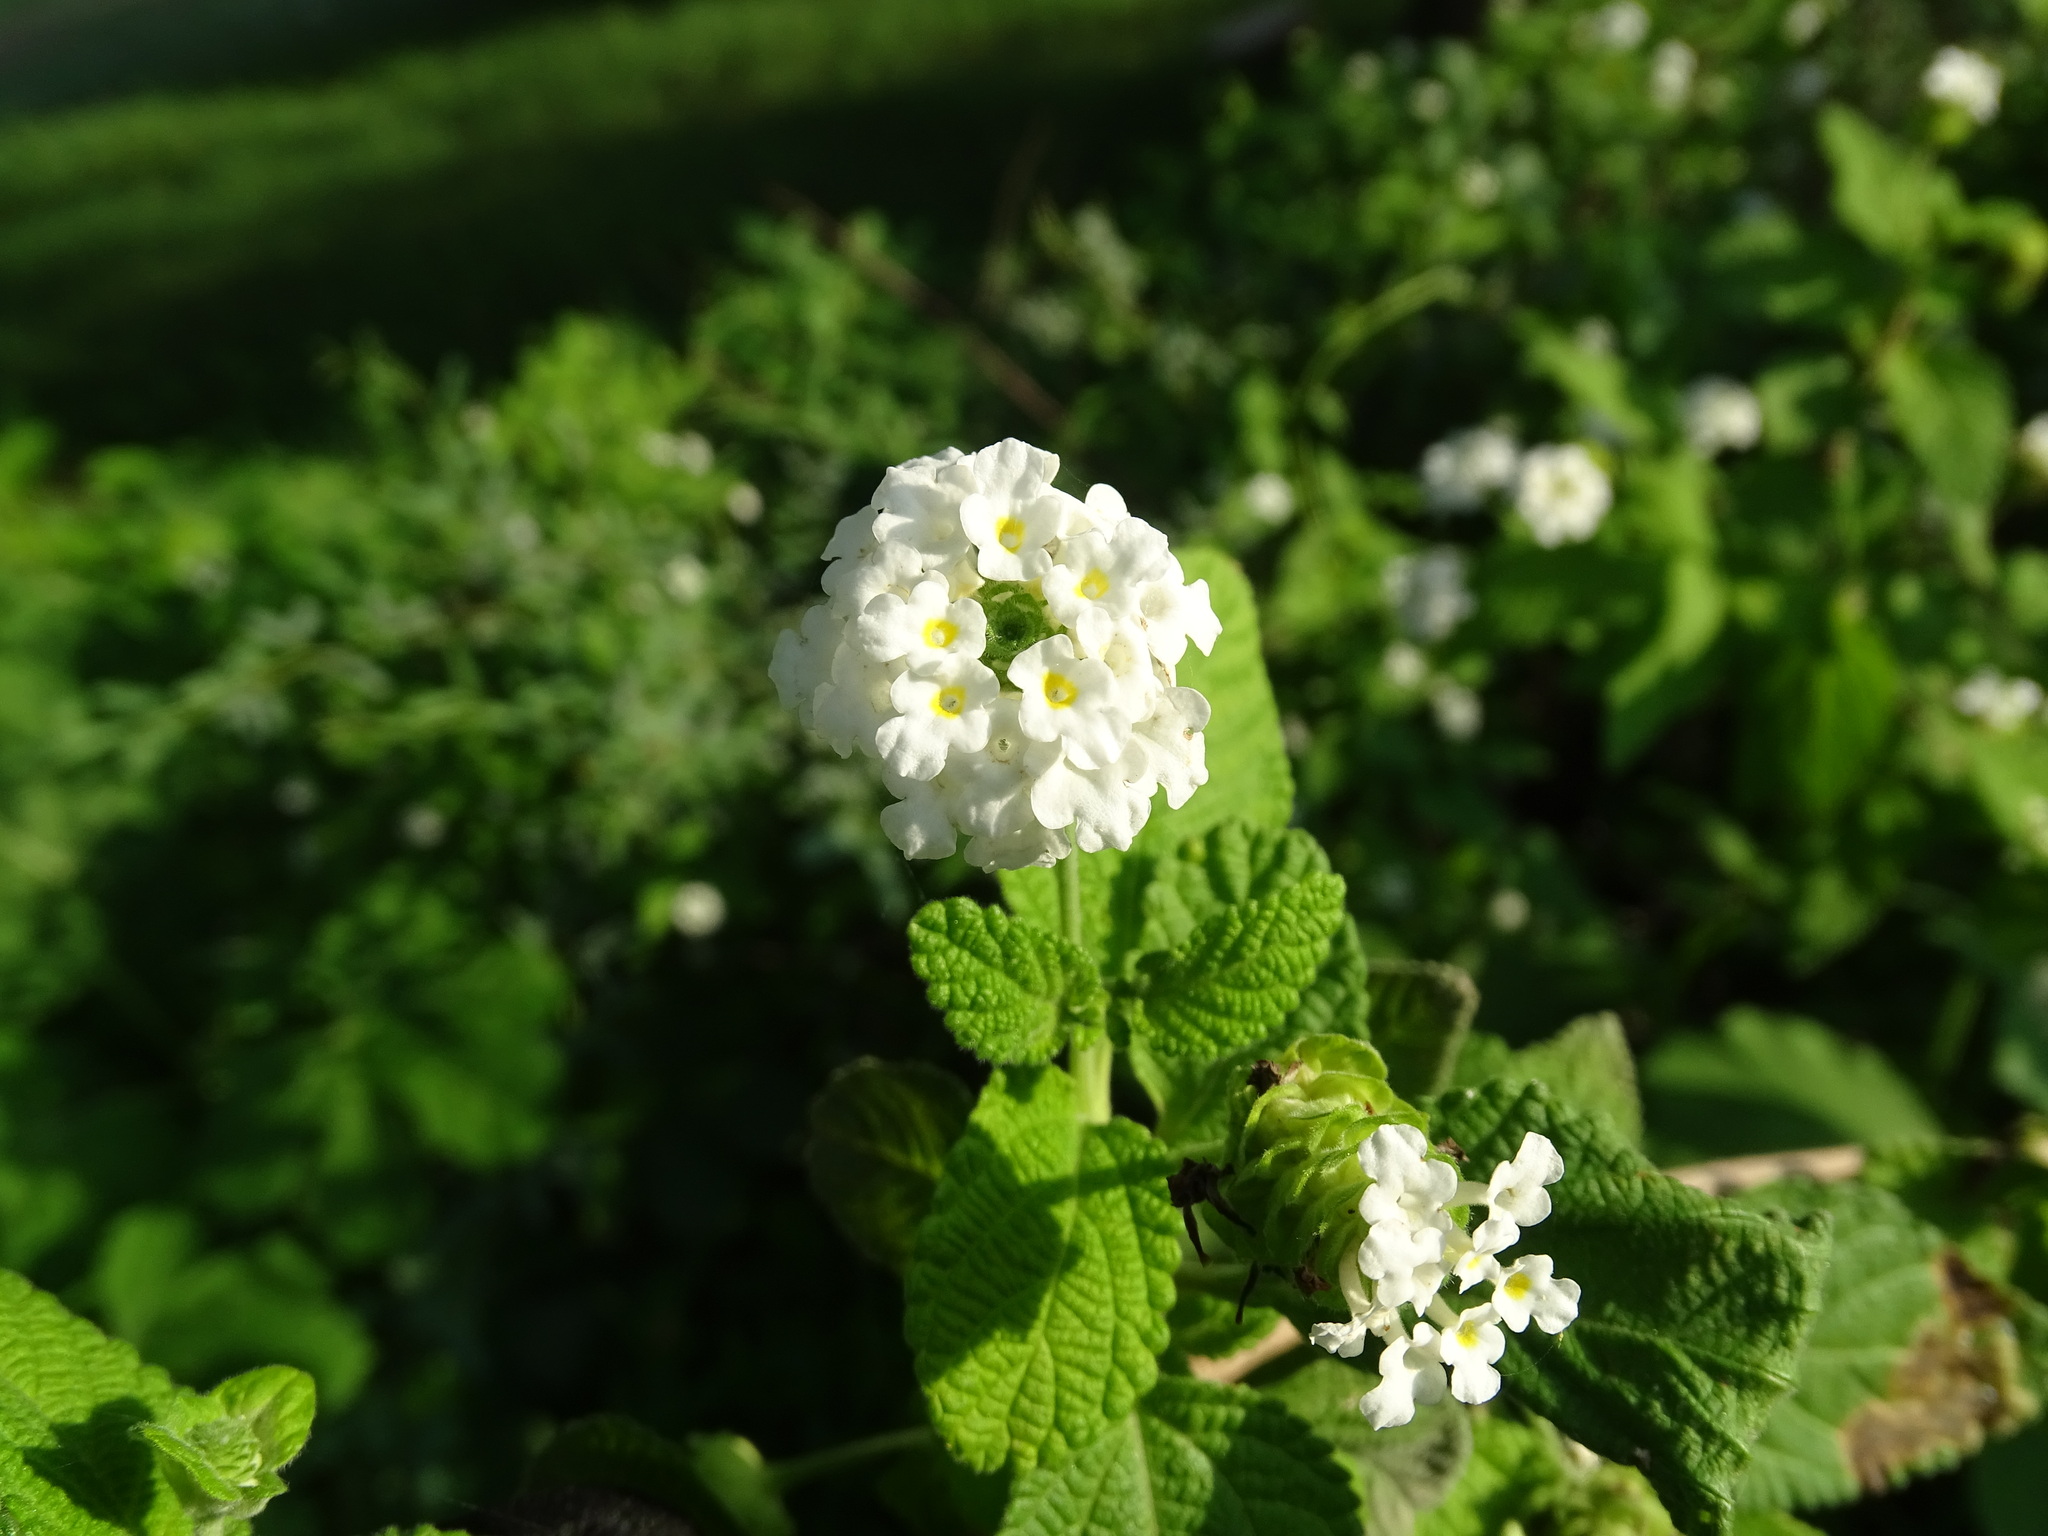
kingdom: Plantae
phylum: Tracheophyta
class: Magnoliopsida
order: Lamiales
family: Verbenaceae
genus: Lantana
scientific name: Lantana velutina
